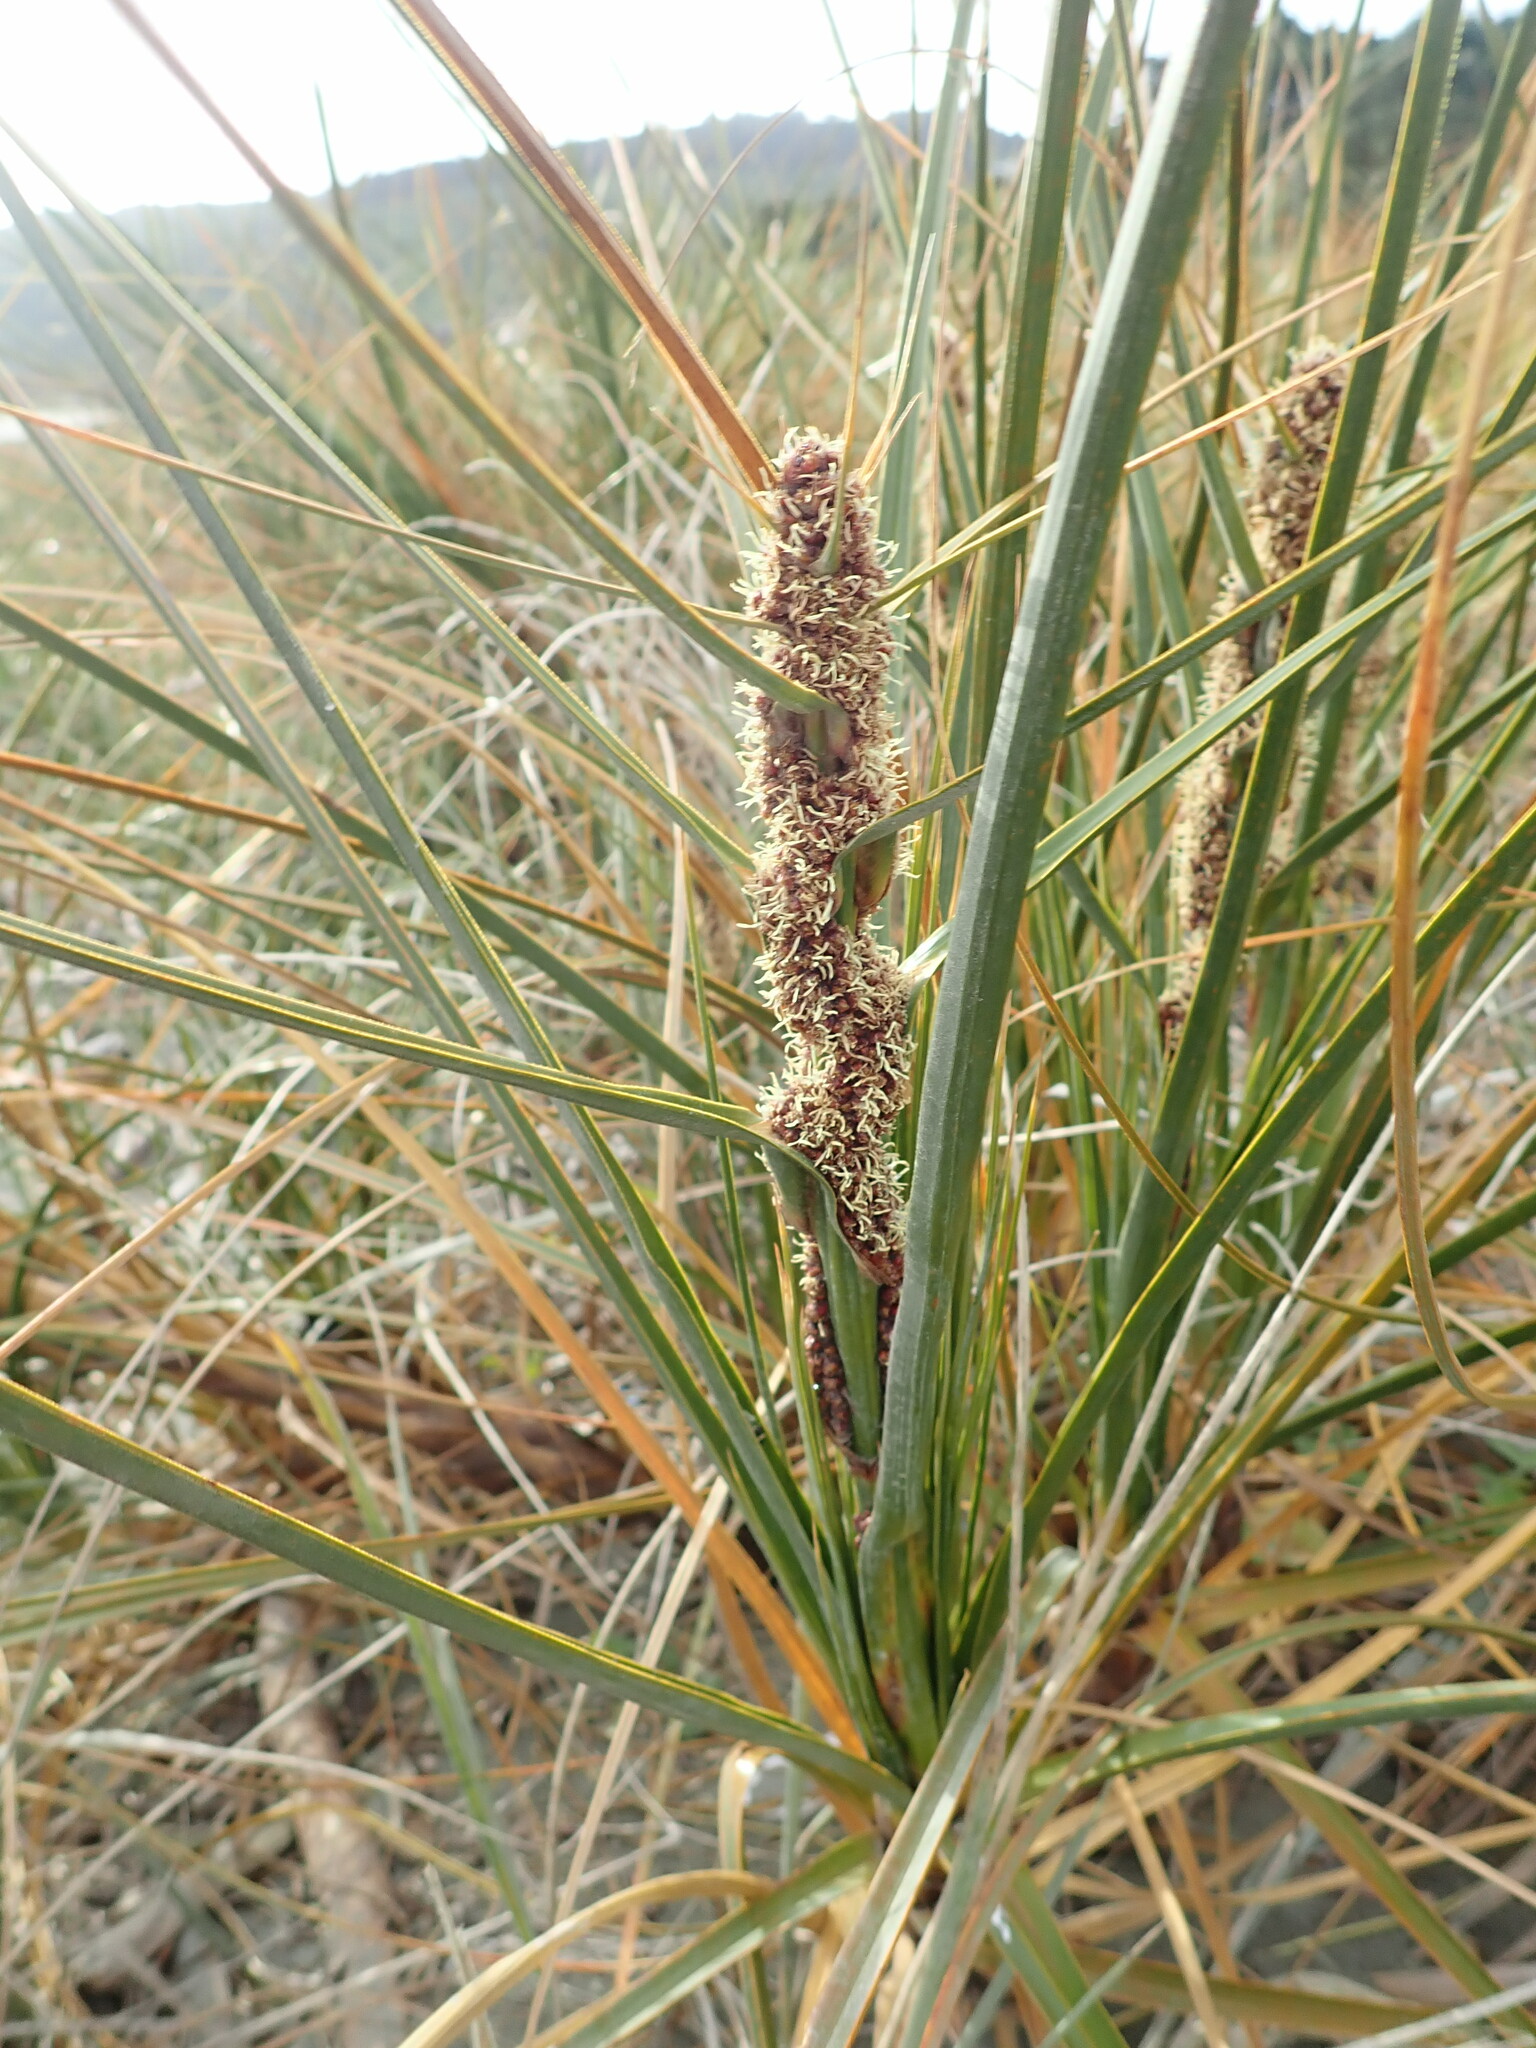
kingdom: Plantae
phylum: Tracheophyta
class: Liliopsida
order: Poales
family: Cyperaceae
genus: Ficinia
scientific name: Ficinia spiralis
